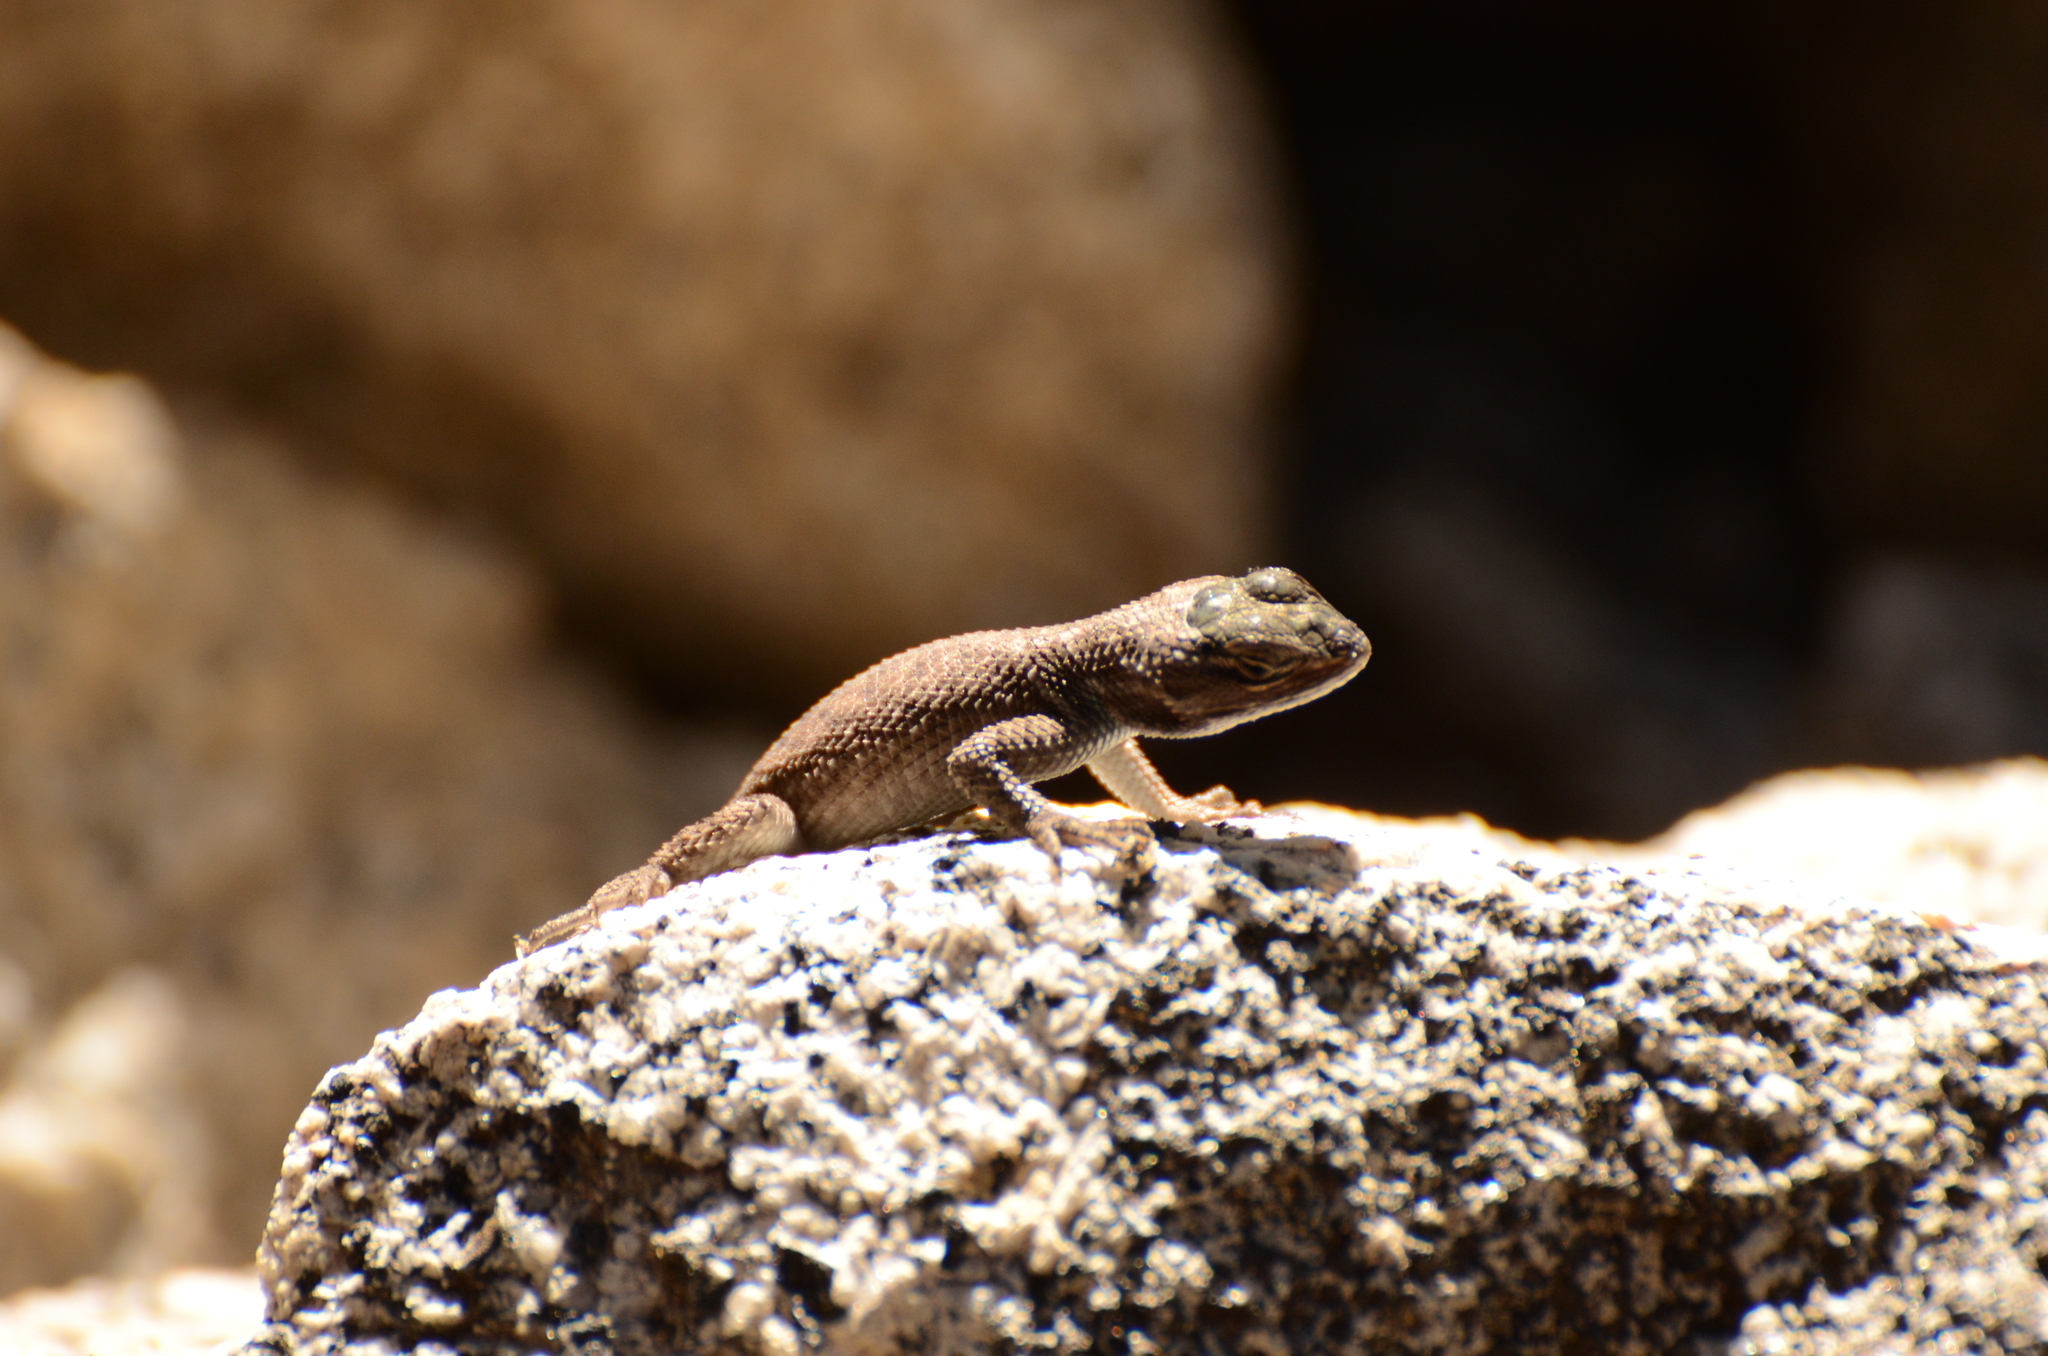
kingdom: Animalia
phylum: Chordata
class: Squamata
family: Phrynosomatidae
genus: Sceloporus
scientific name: Sceloporus graciosus
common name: Sagebrush lizard
